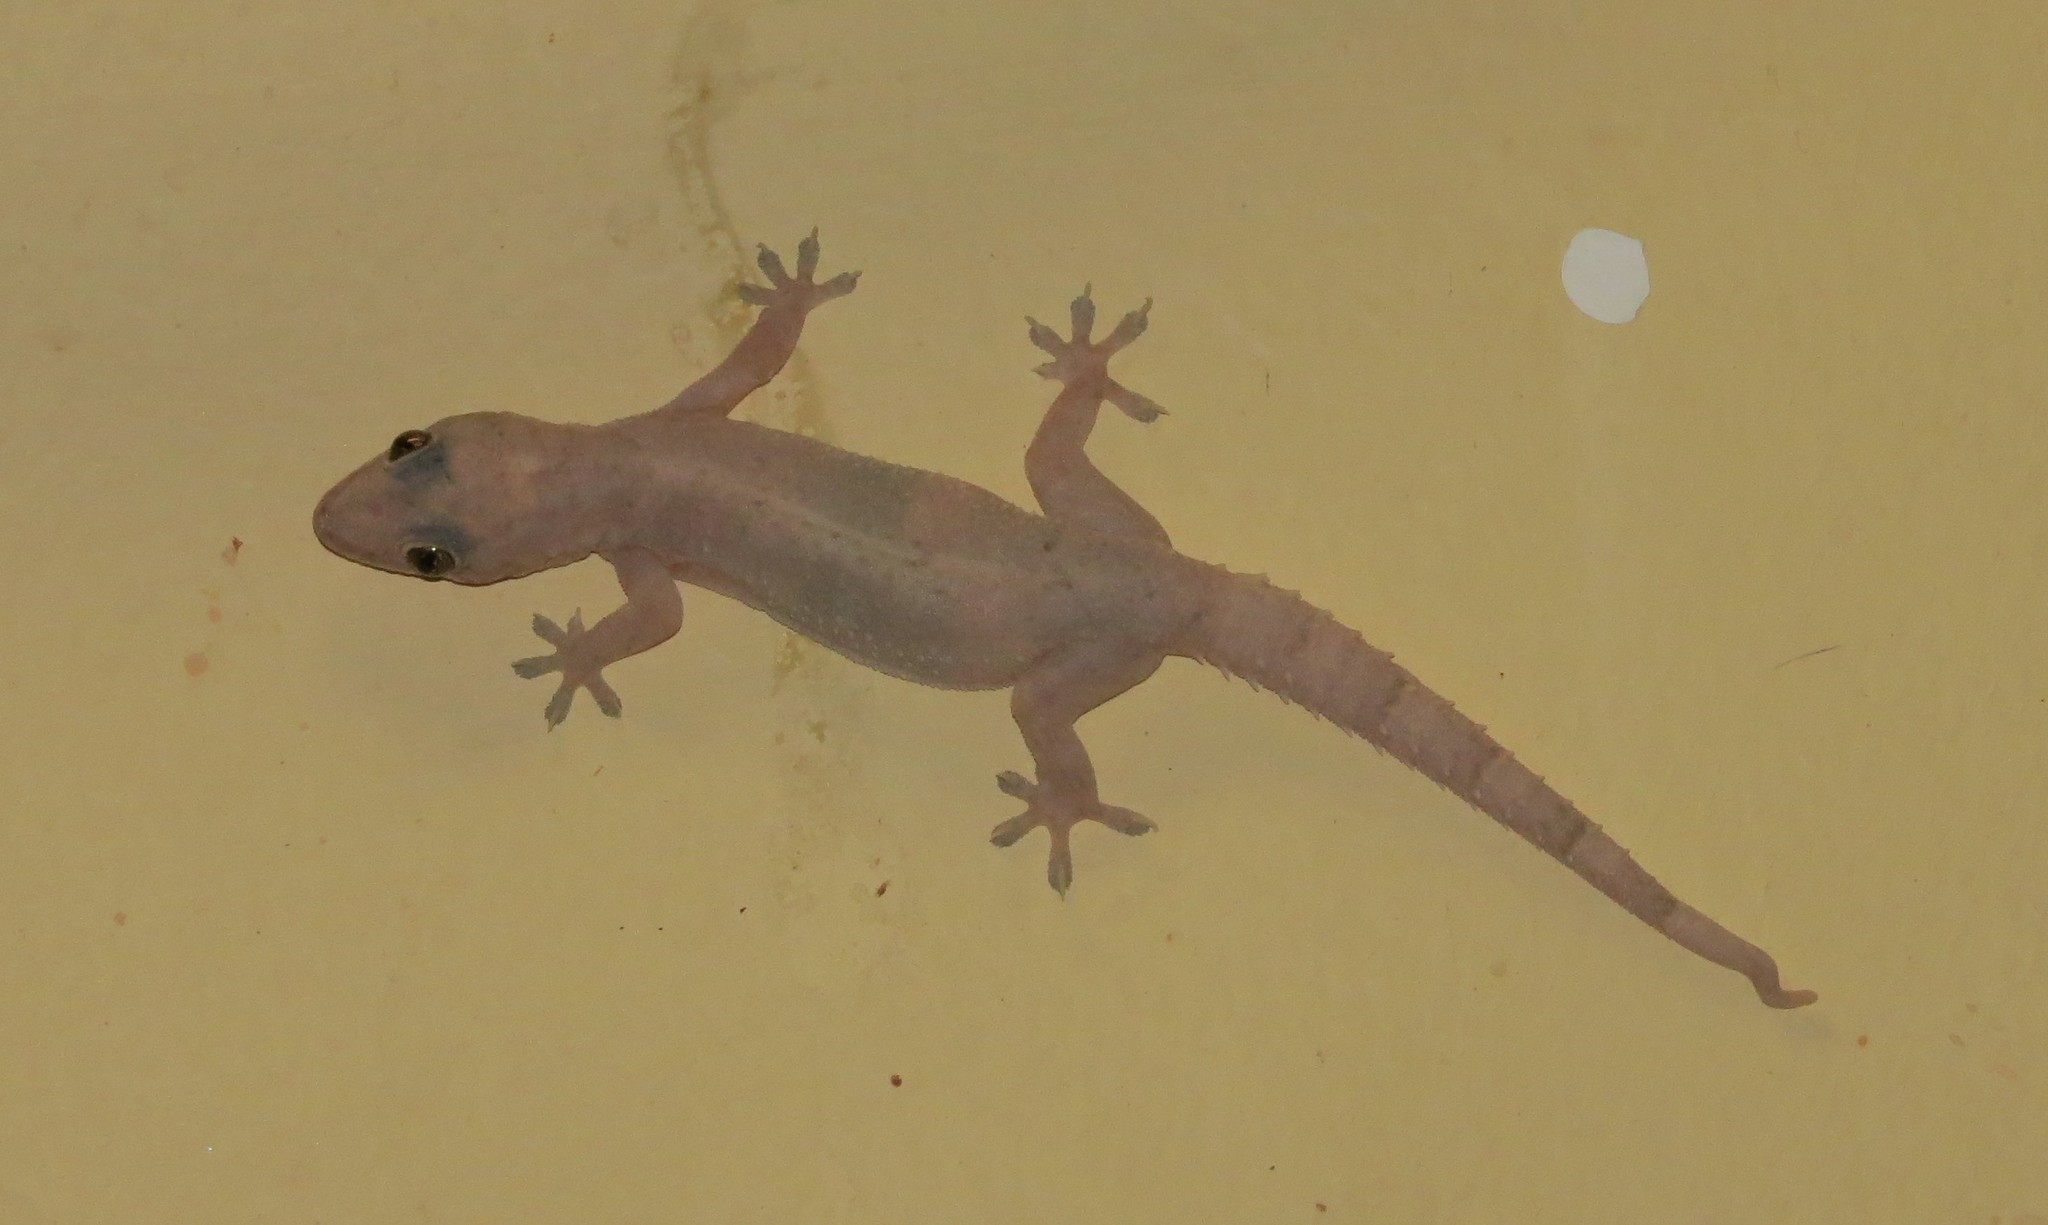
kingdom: Animalia
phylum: Chordata
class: Squamata
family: Gekkonidae
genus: Hemidactylus
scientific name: Hemidactylus mabouia
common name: House gecko
